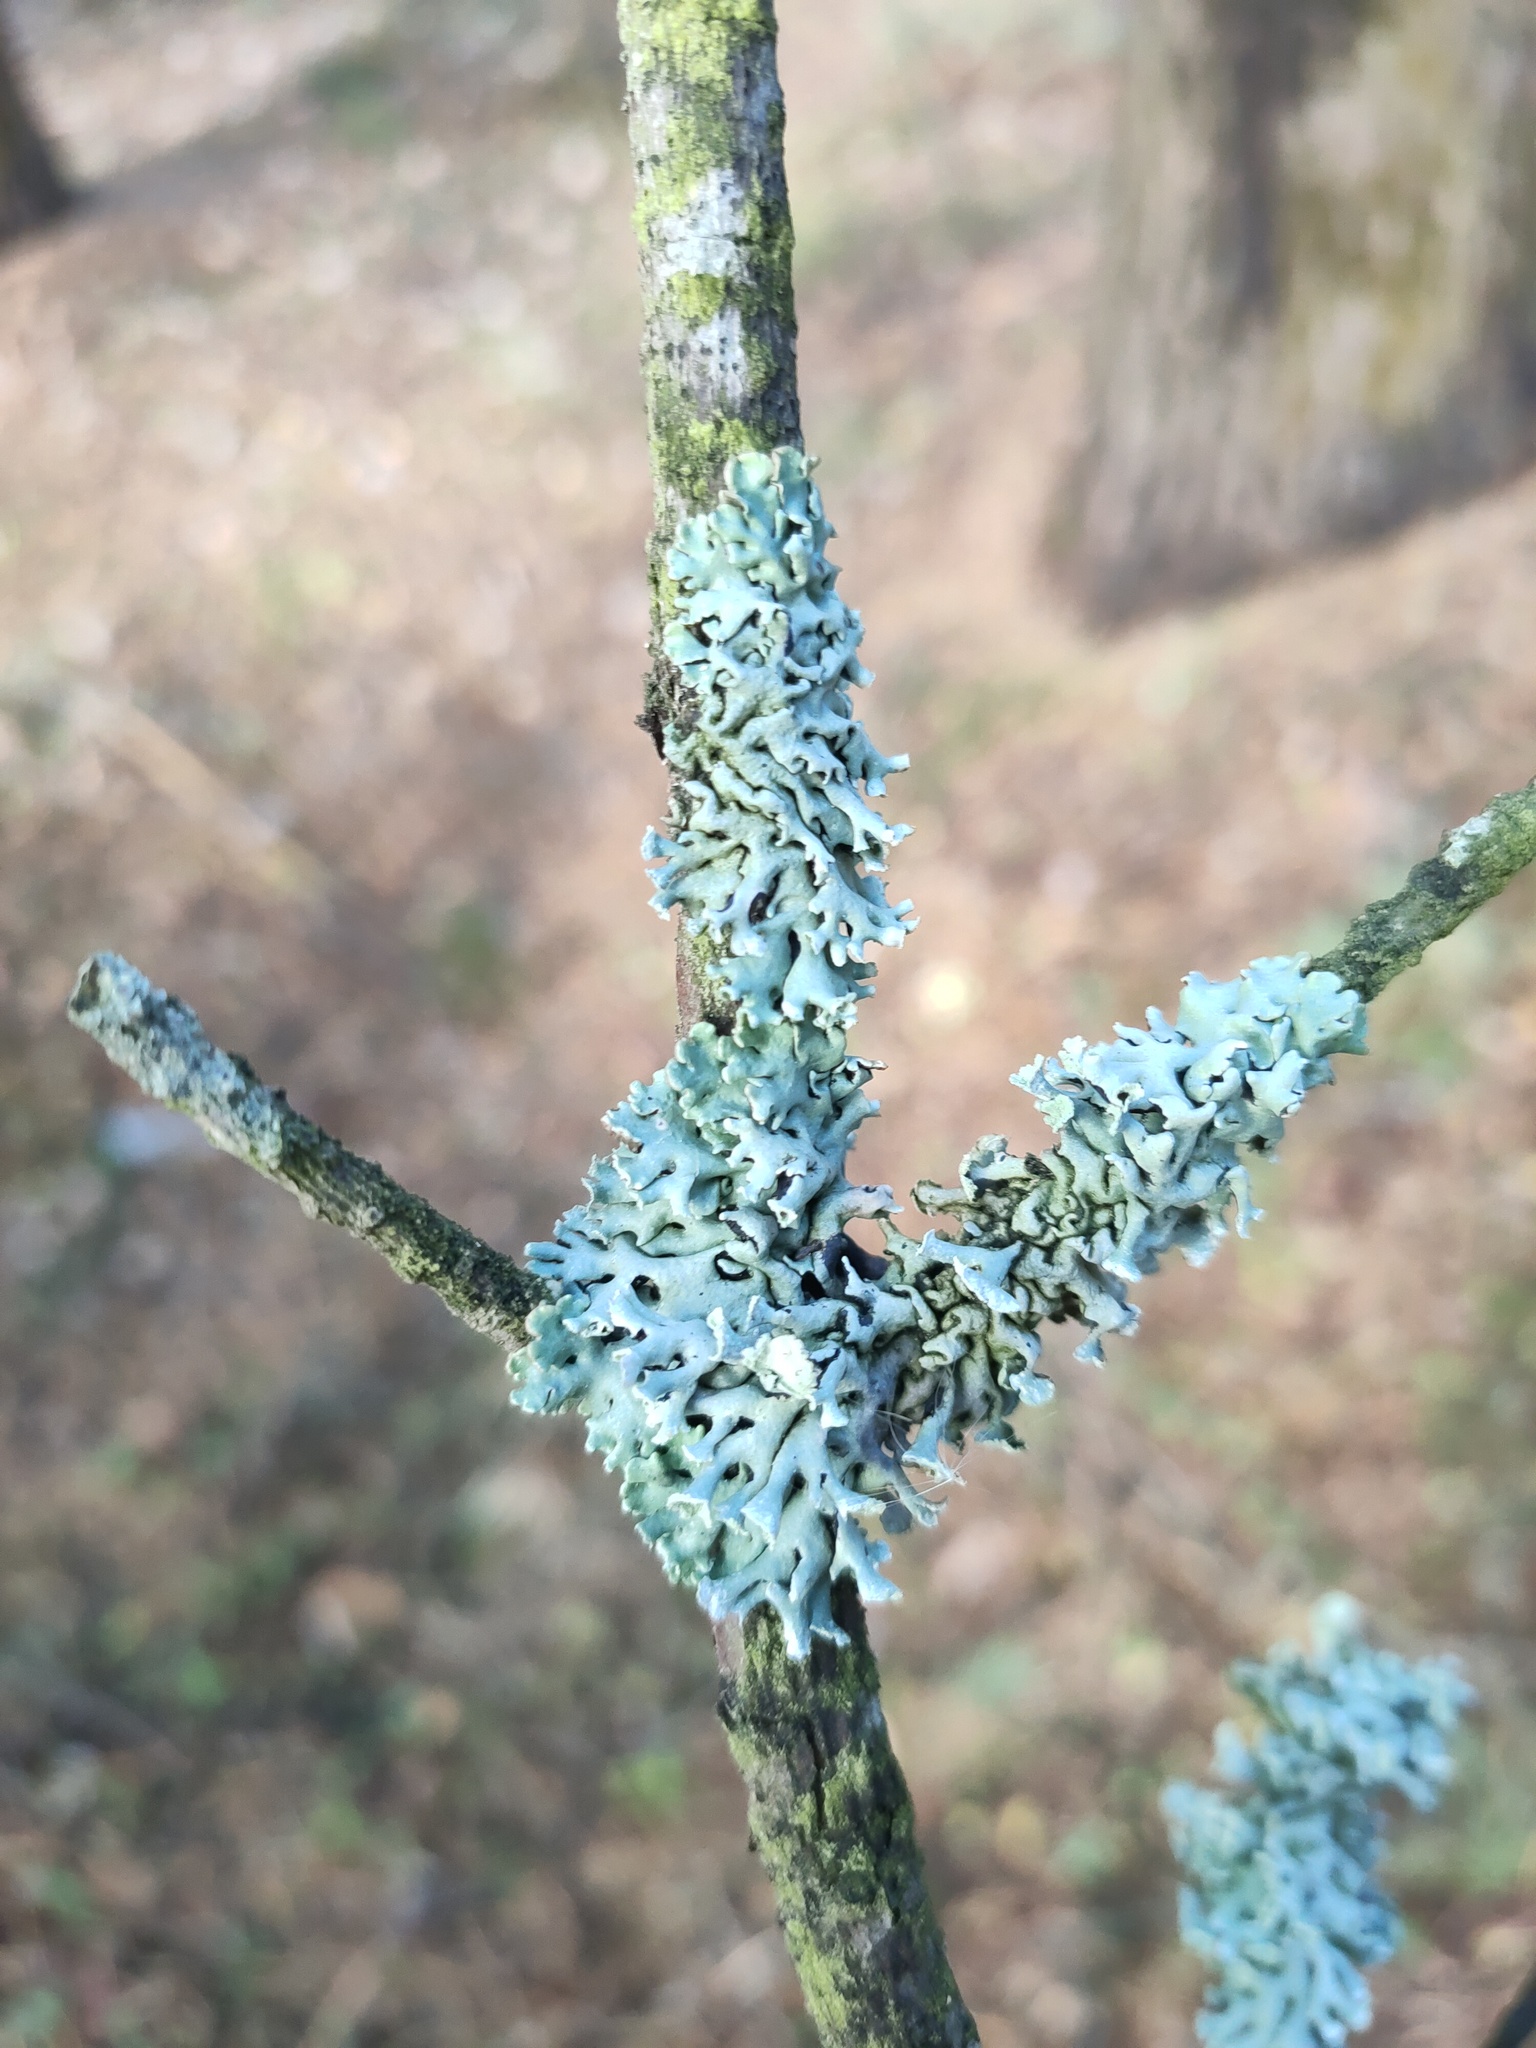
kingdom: Fungi
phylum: Ascomycota
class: Lecanoromycetes
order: Lecanorales
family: Parmeliaceae
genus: Hypogymnia
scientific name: Hypogymnia physodes
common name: Dark crottle
